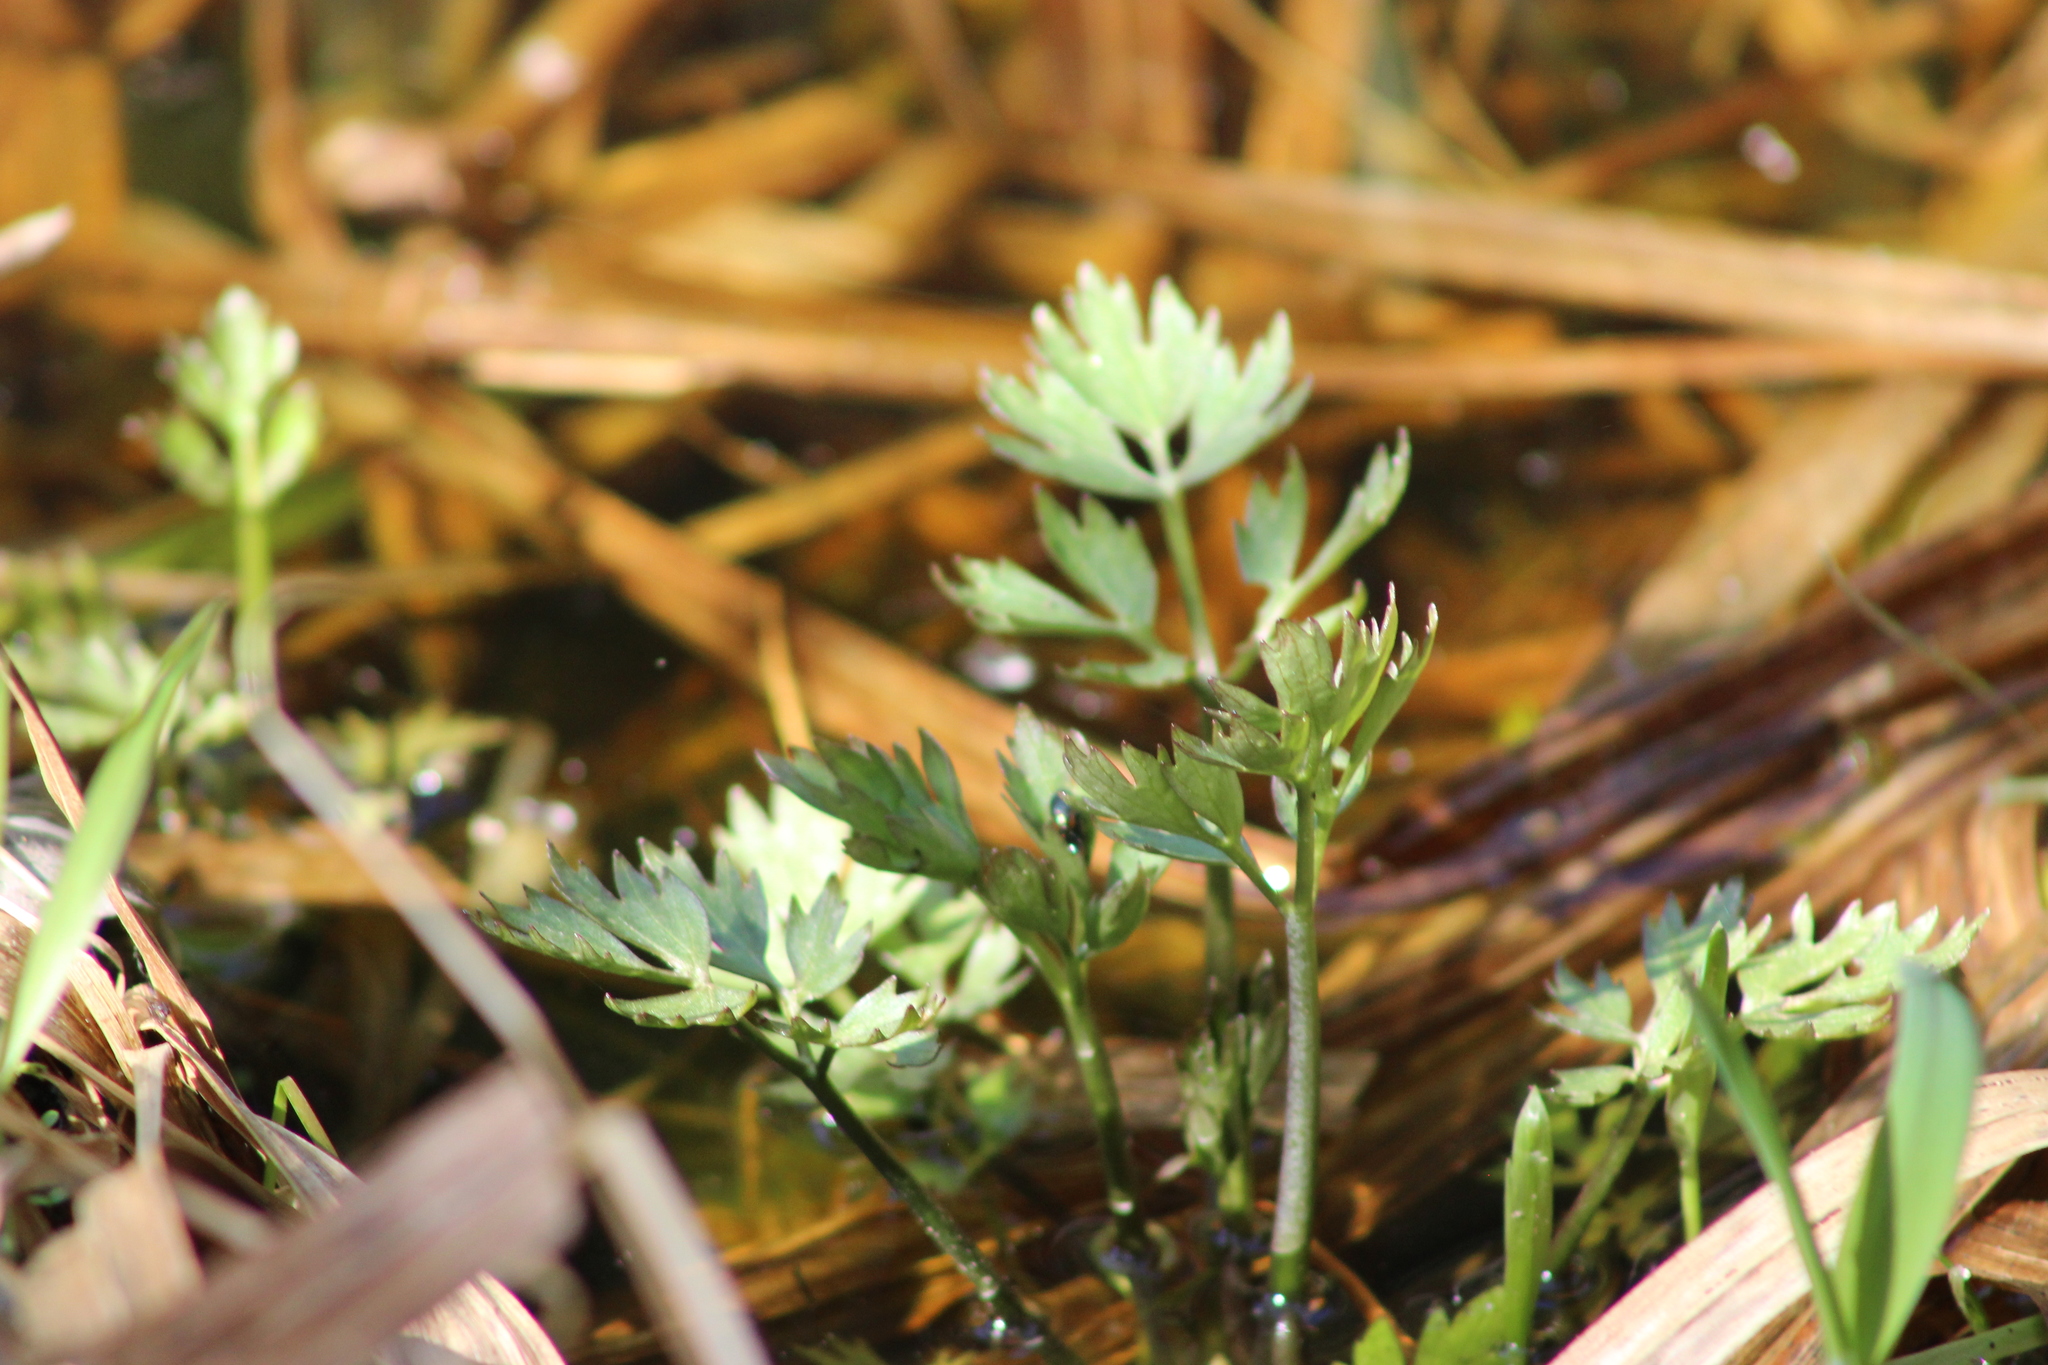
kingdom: Plantae
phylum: Tracheophyta
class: Magnoliopsida
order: Ranunculales
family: Ranunculaceae
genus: Ranunculus
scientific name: Ranunculus repens
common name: Creeping buttercup
